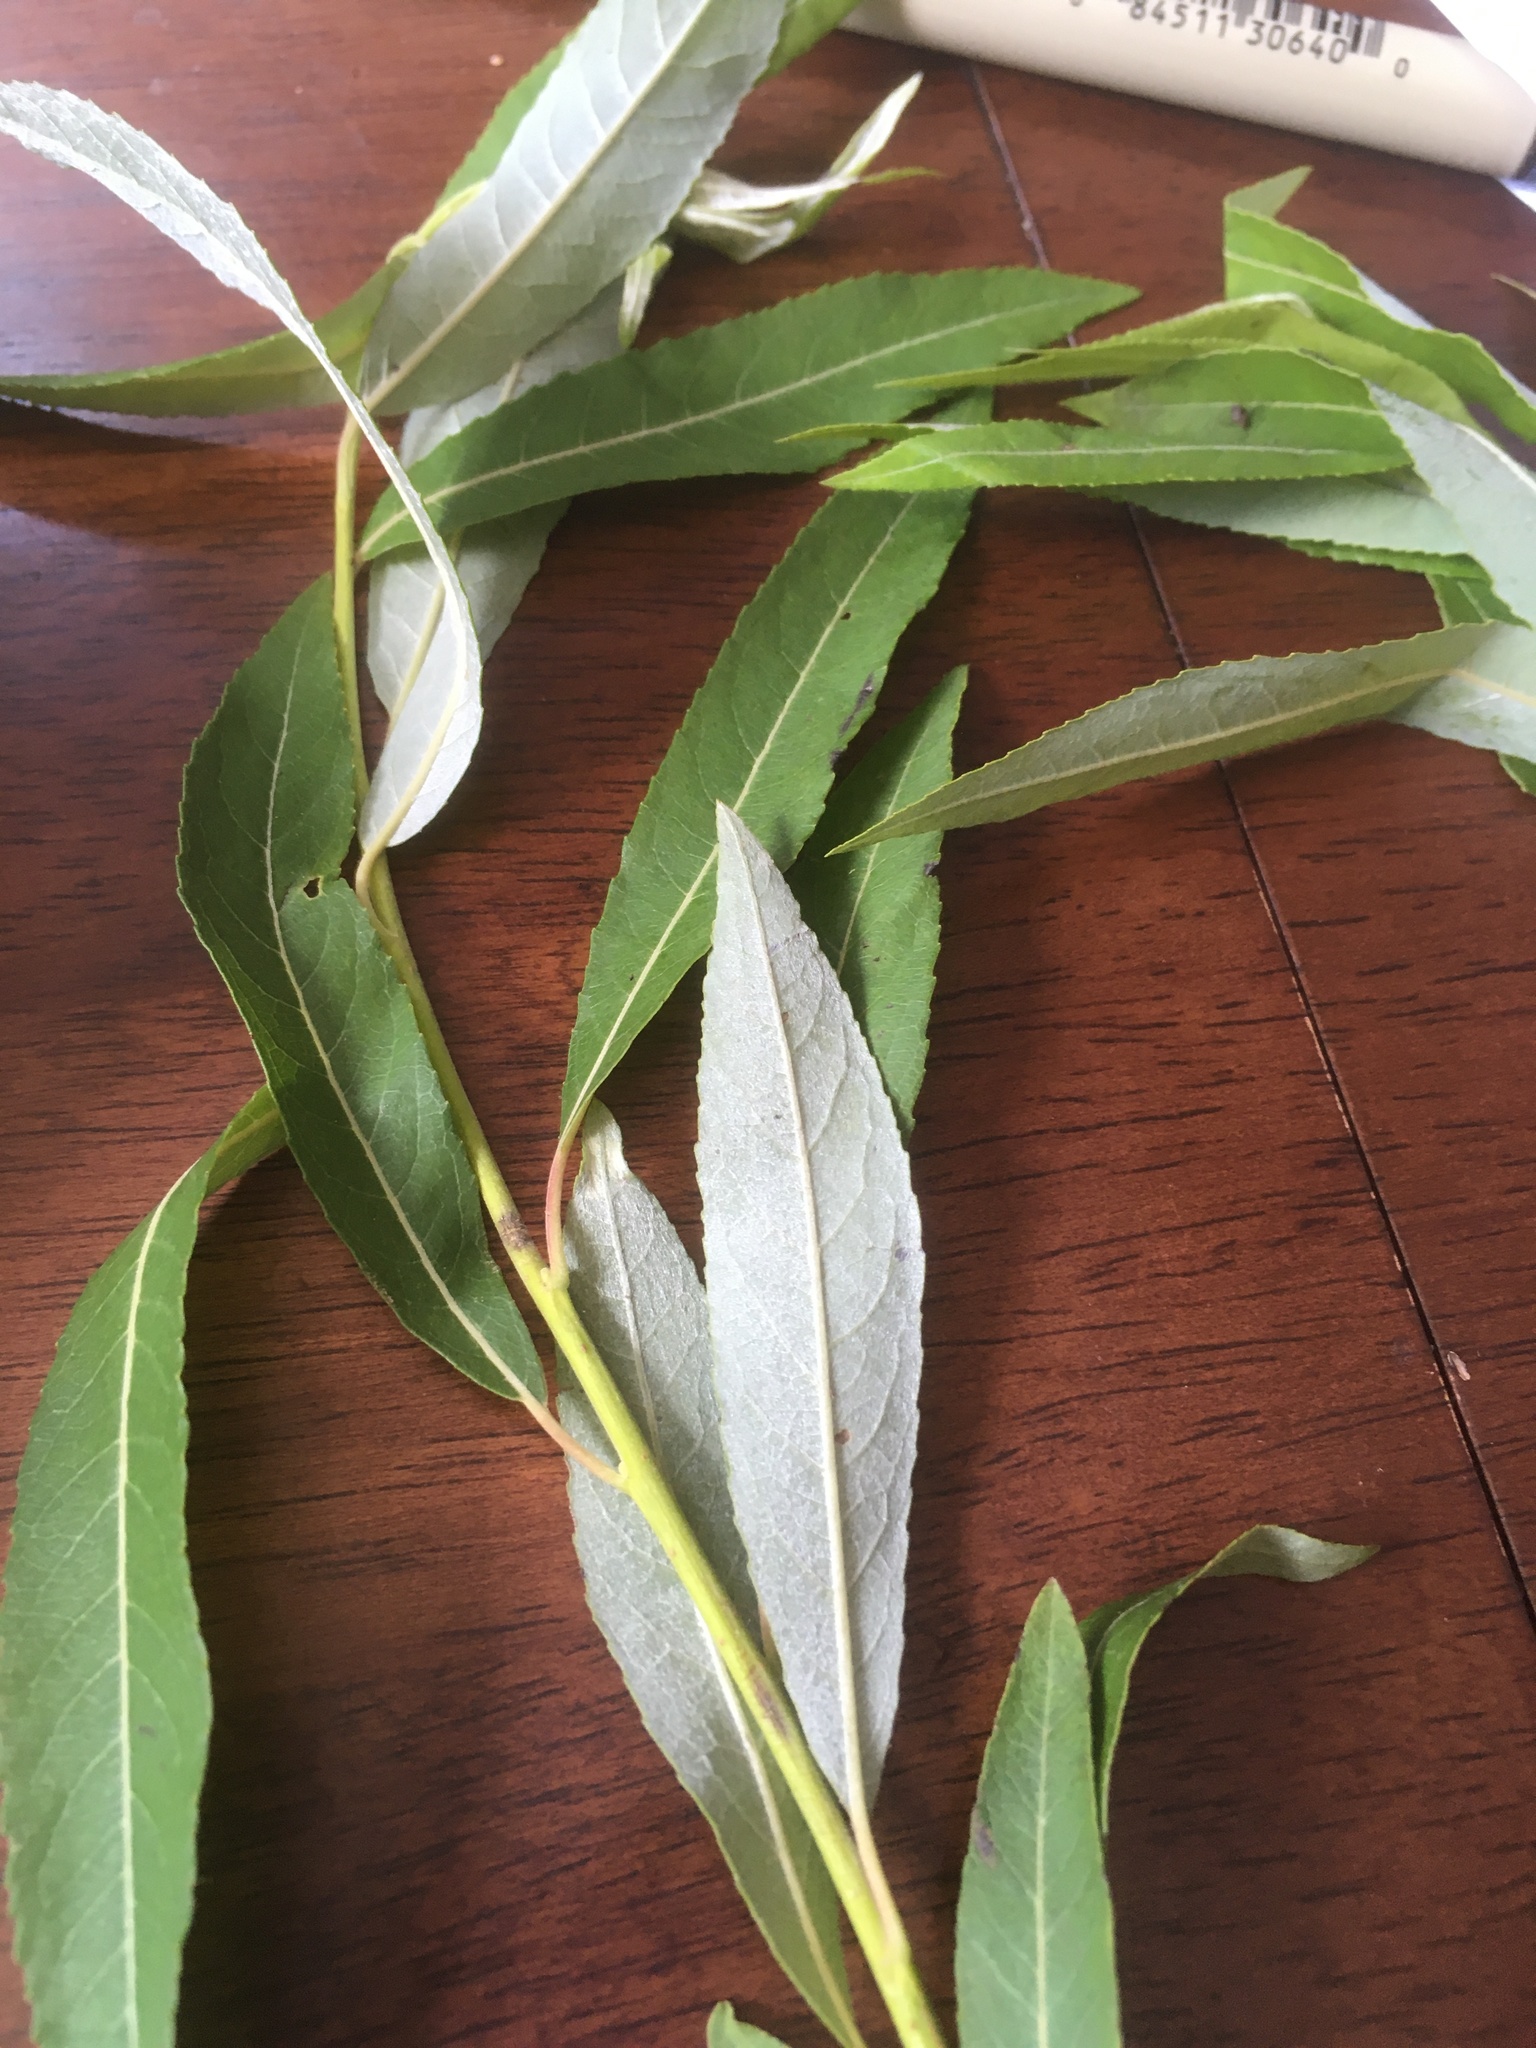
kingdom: Plantae
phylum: Tracheophyta
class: Magnoliopsida
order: Malpighiales
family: Salicaceae
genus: Salix
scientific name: Salix sericea
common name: Silky willow
